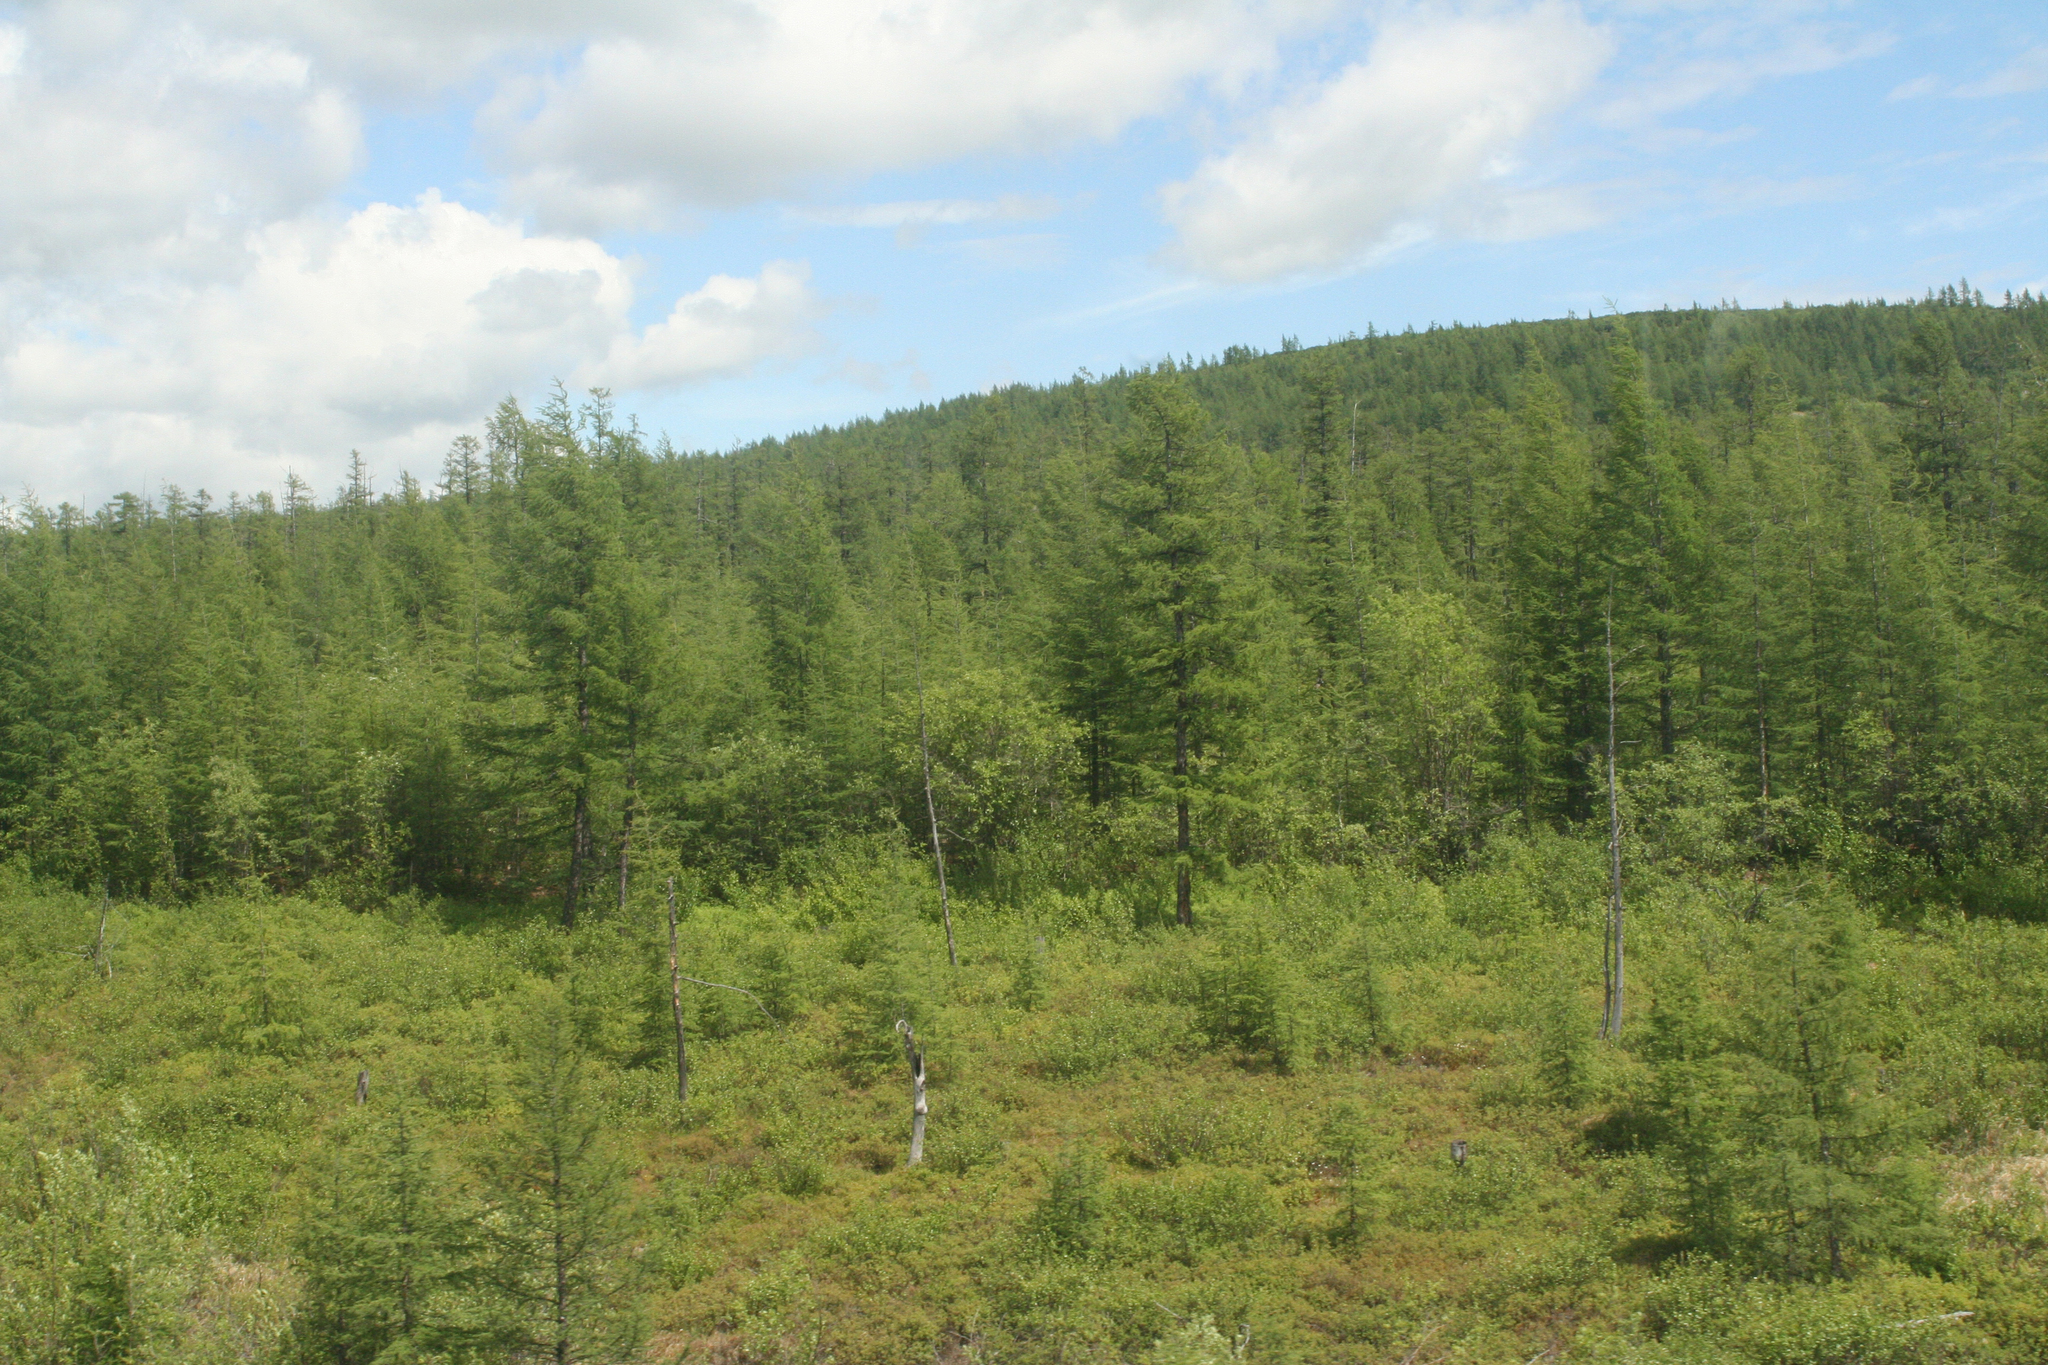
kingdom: Plantae
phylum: Tracheophyta
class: Pinopsida
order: Pinales
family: Pinaceae
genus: Larix
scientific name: Larix gmelinii
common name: Dahurian larch
